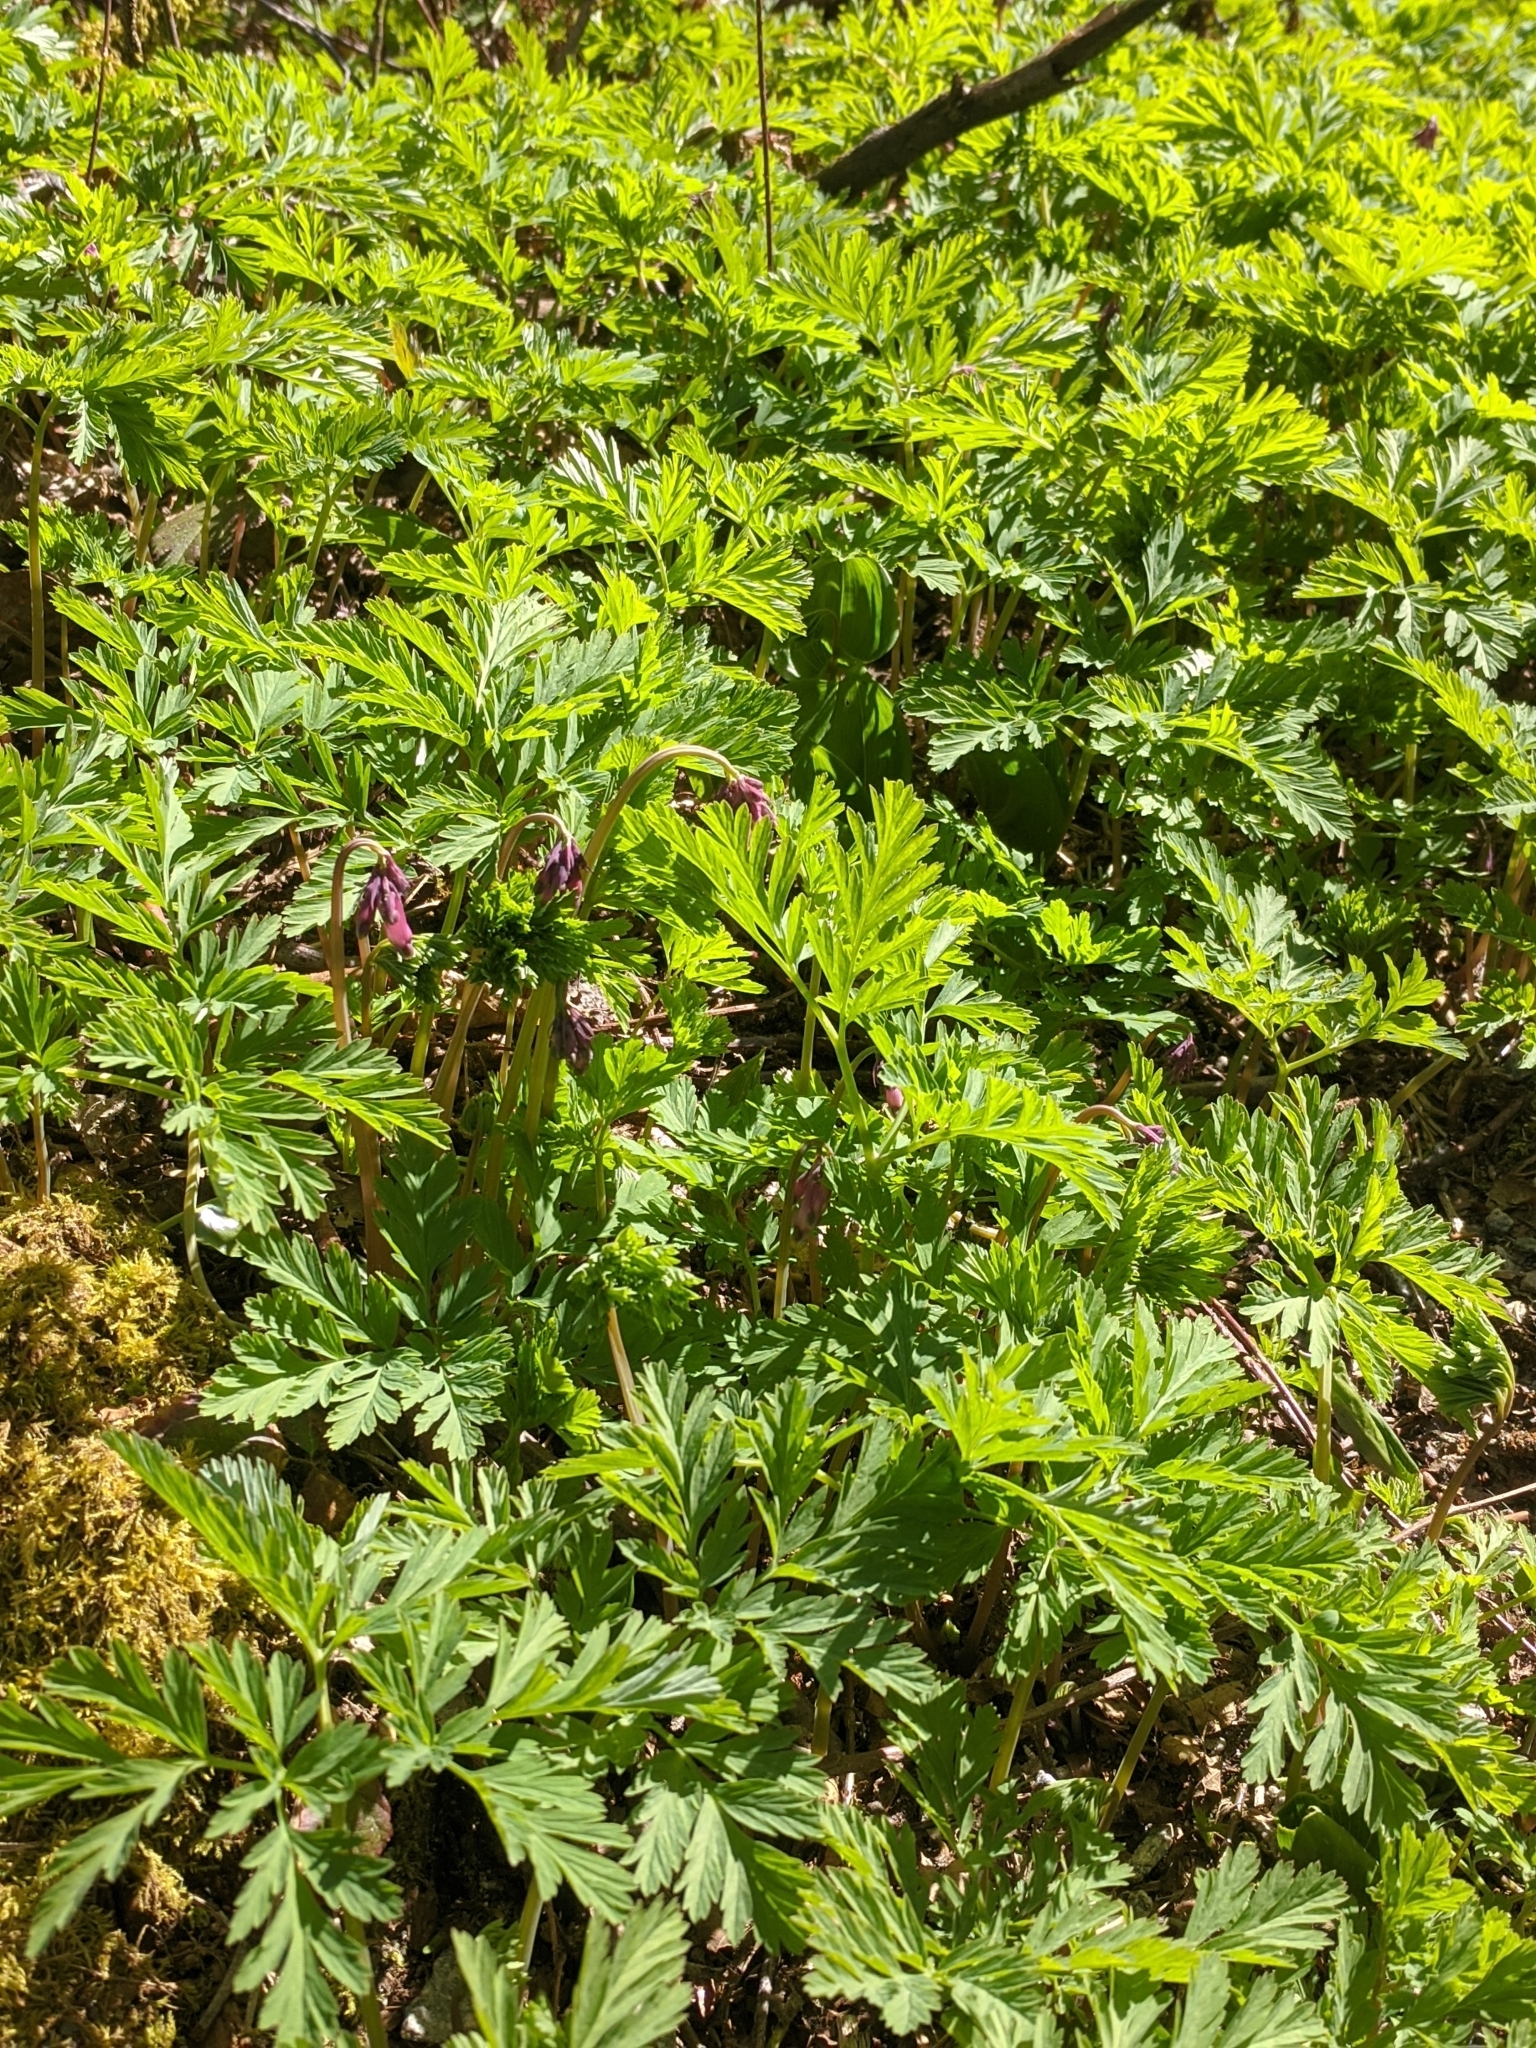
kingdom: Plantae
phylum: Tracheophyta
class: Magnoliopsida
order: Ranunculales
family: Papaveraceae
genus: Dicentra
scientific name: Dicentra formosa
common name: Bleeding-heart
